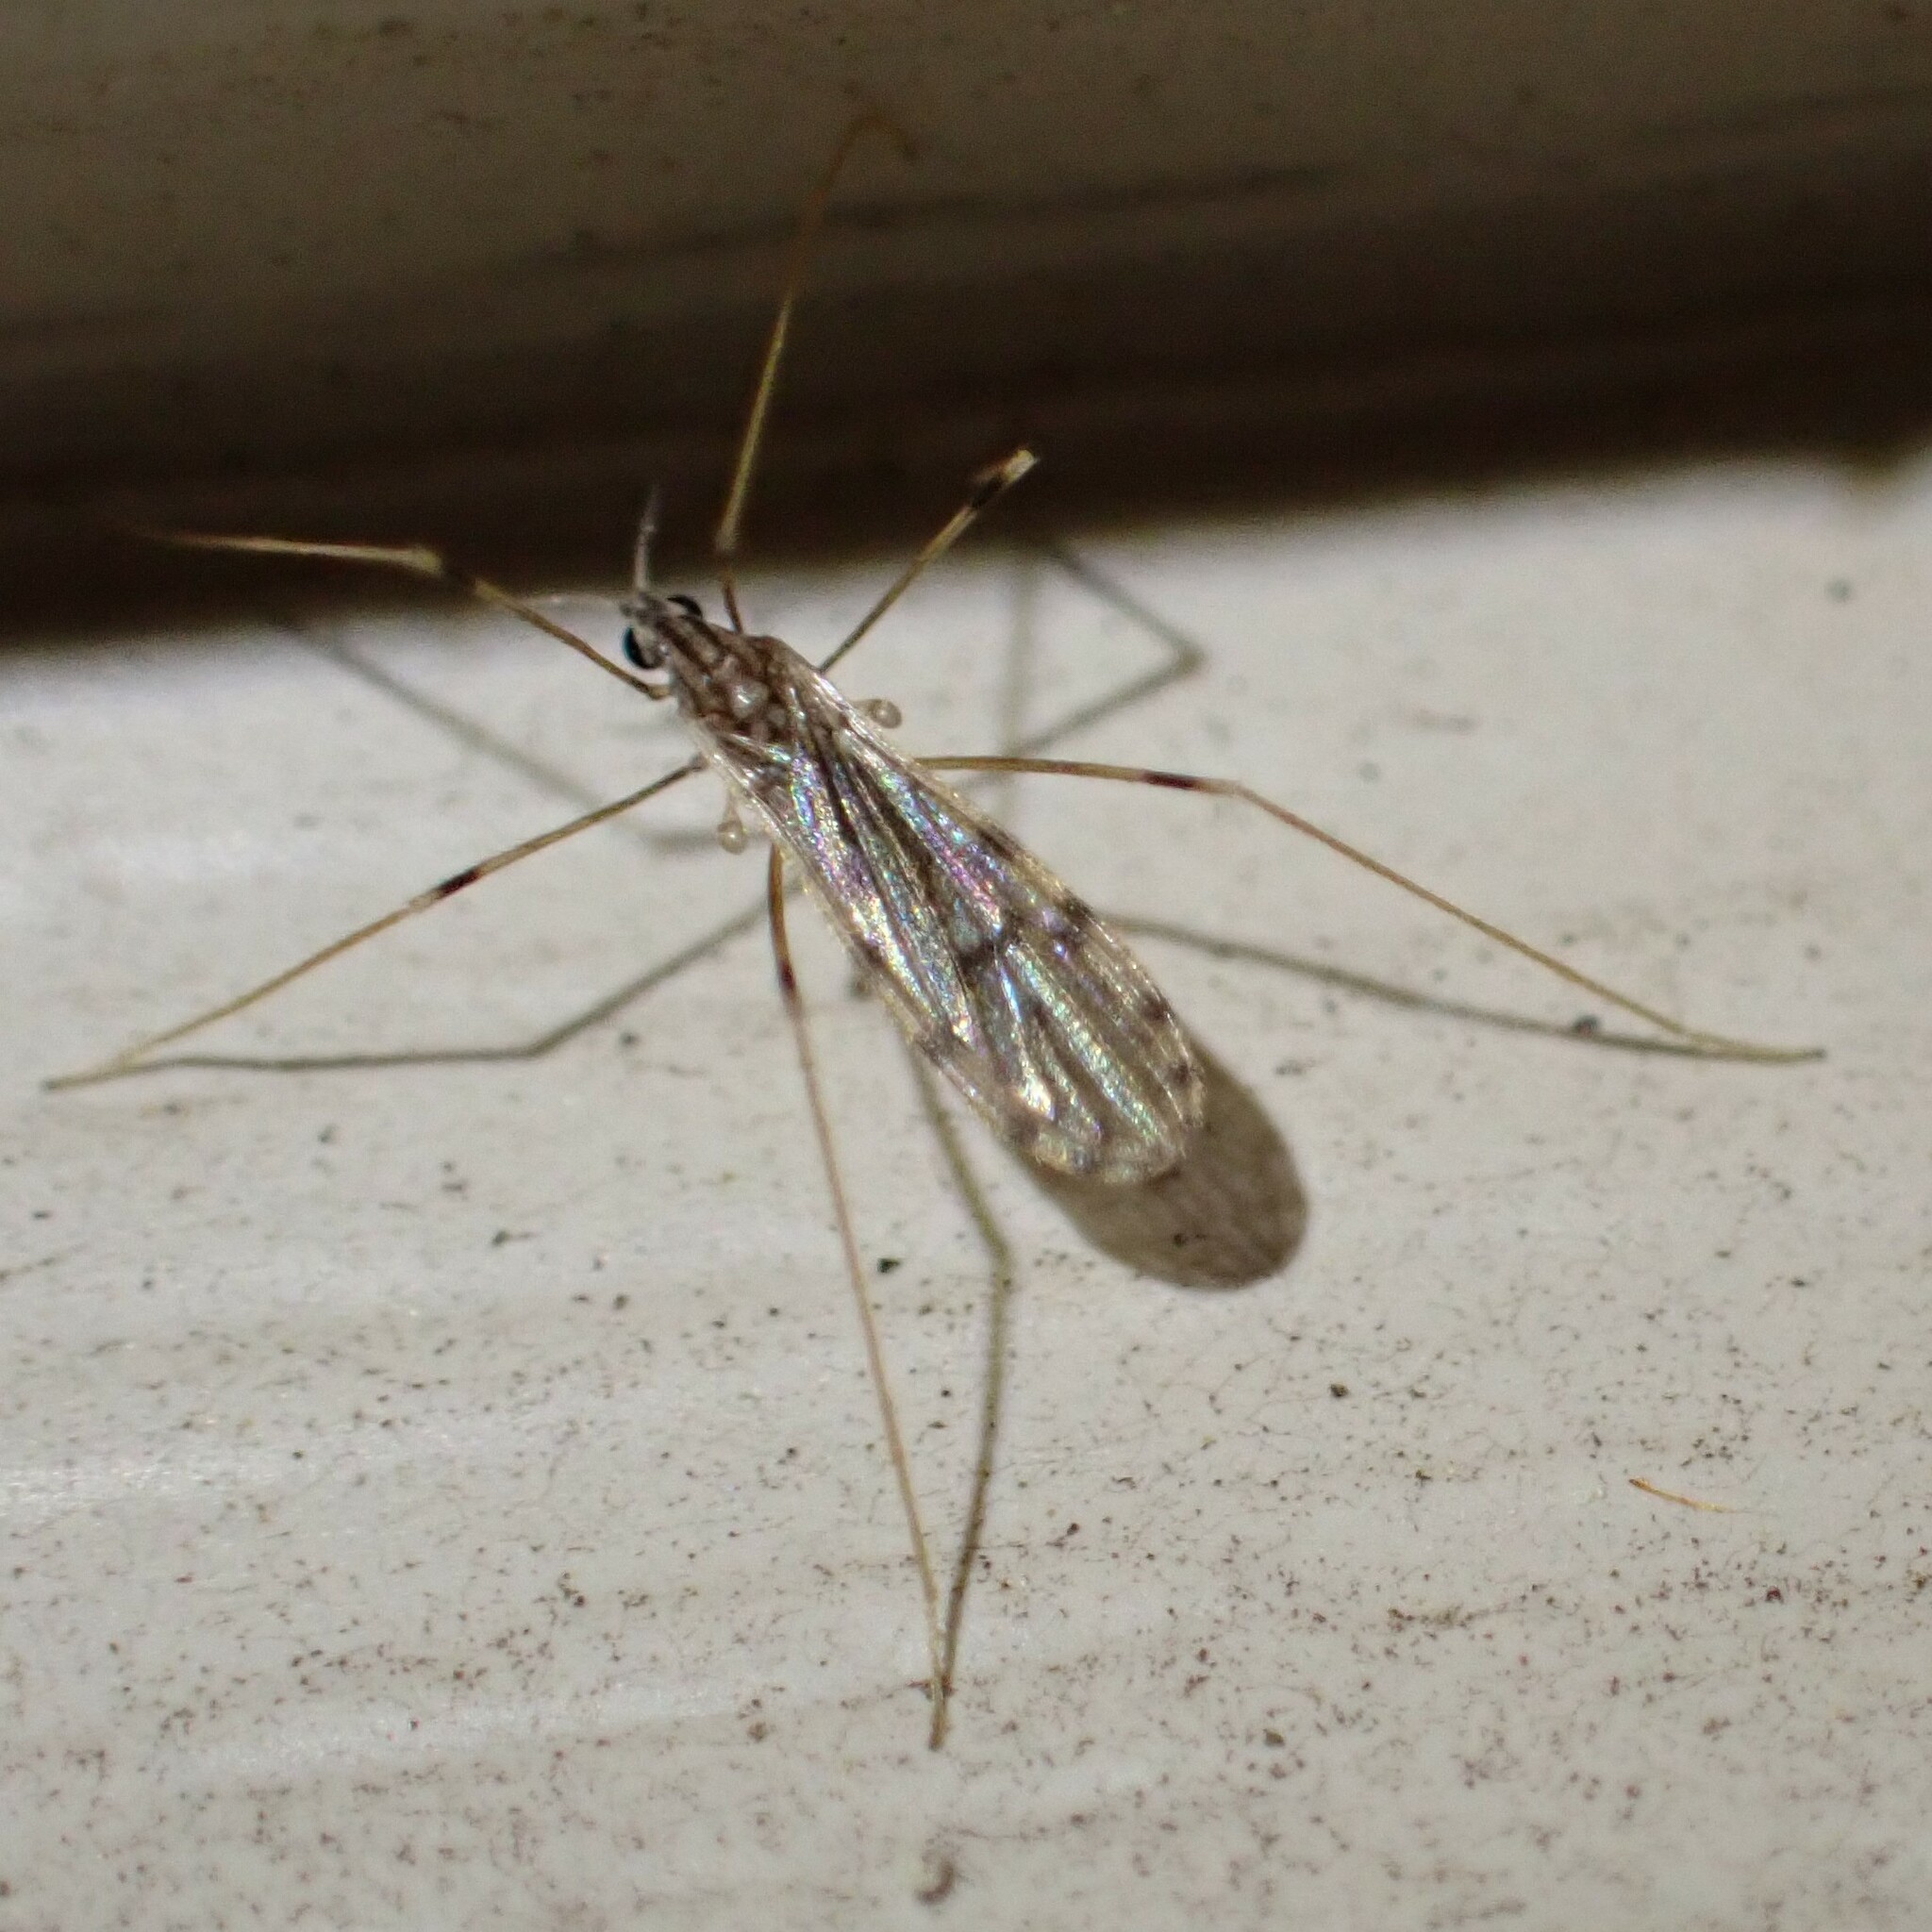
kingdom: Animalia
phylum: Arthropoda
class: Insecta
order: Diptera
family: Limoniidae
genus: Erioptera
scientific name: Erioptera parva
